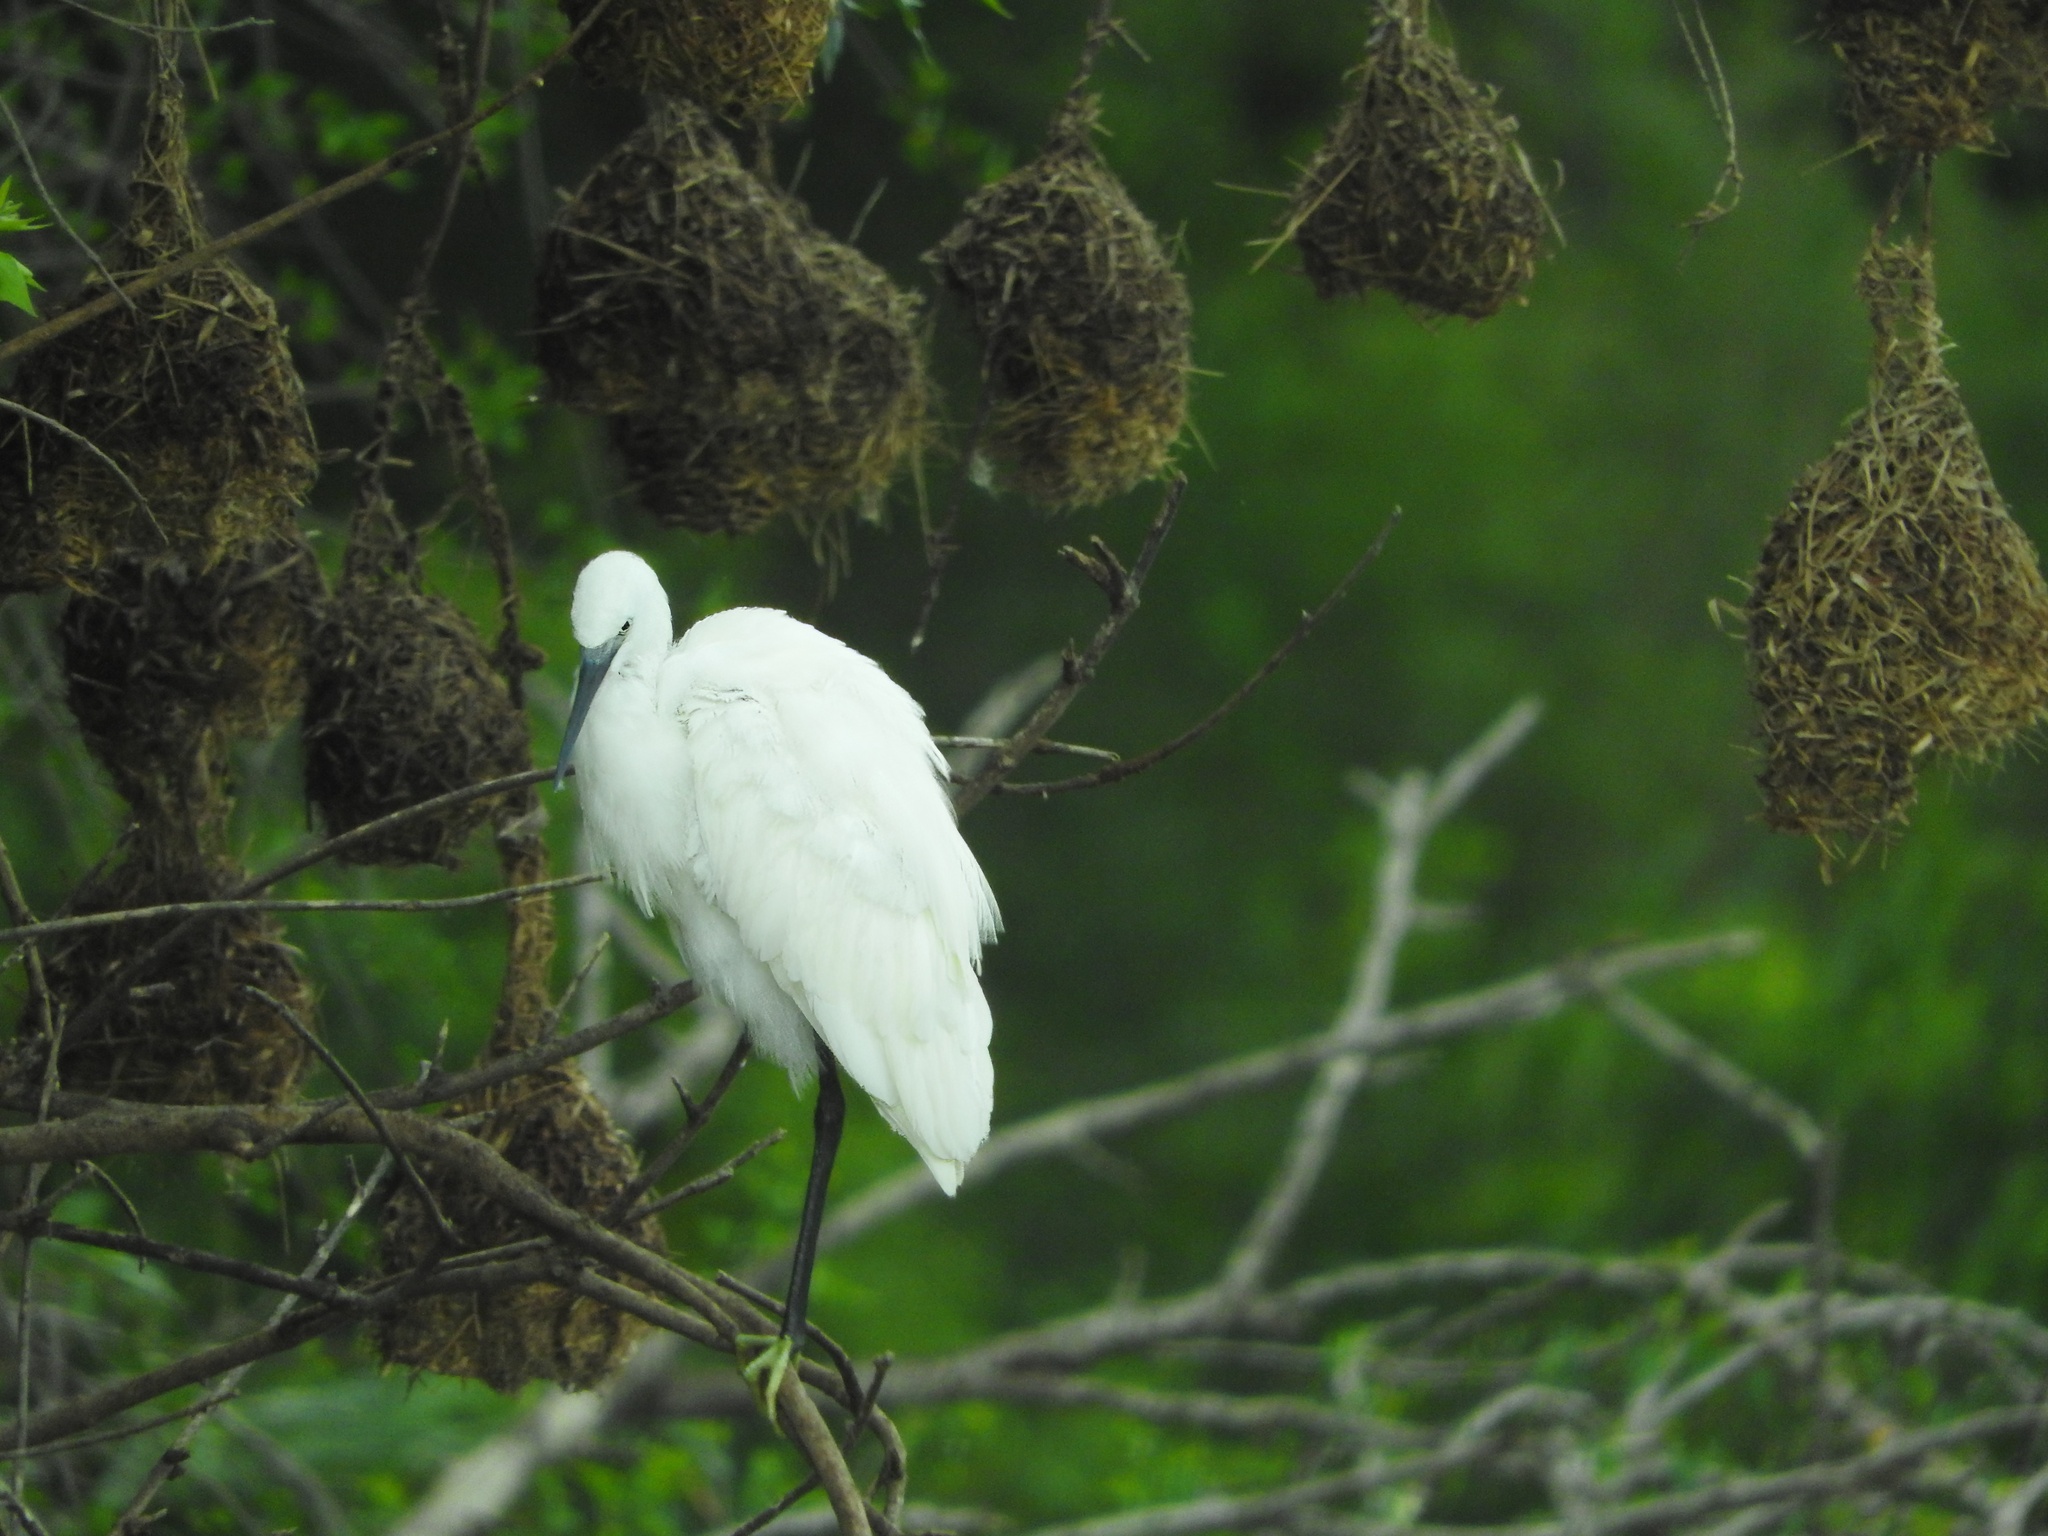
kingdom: Animalia
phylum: Chordata
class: Aves
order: Pelecaniformes
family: Ardeidae
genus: Egretta
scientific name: Egretta garzetta
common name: Little egret
